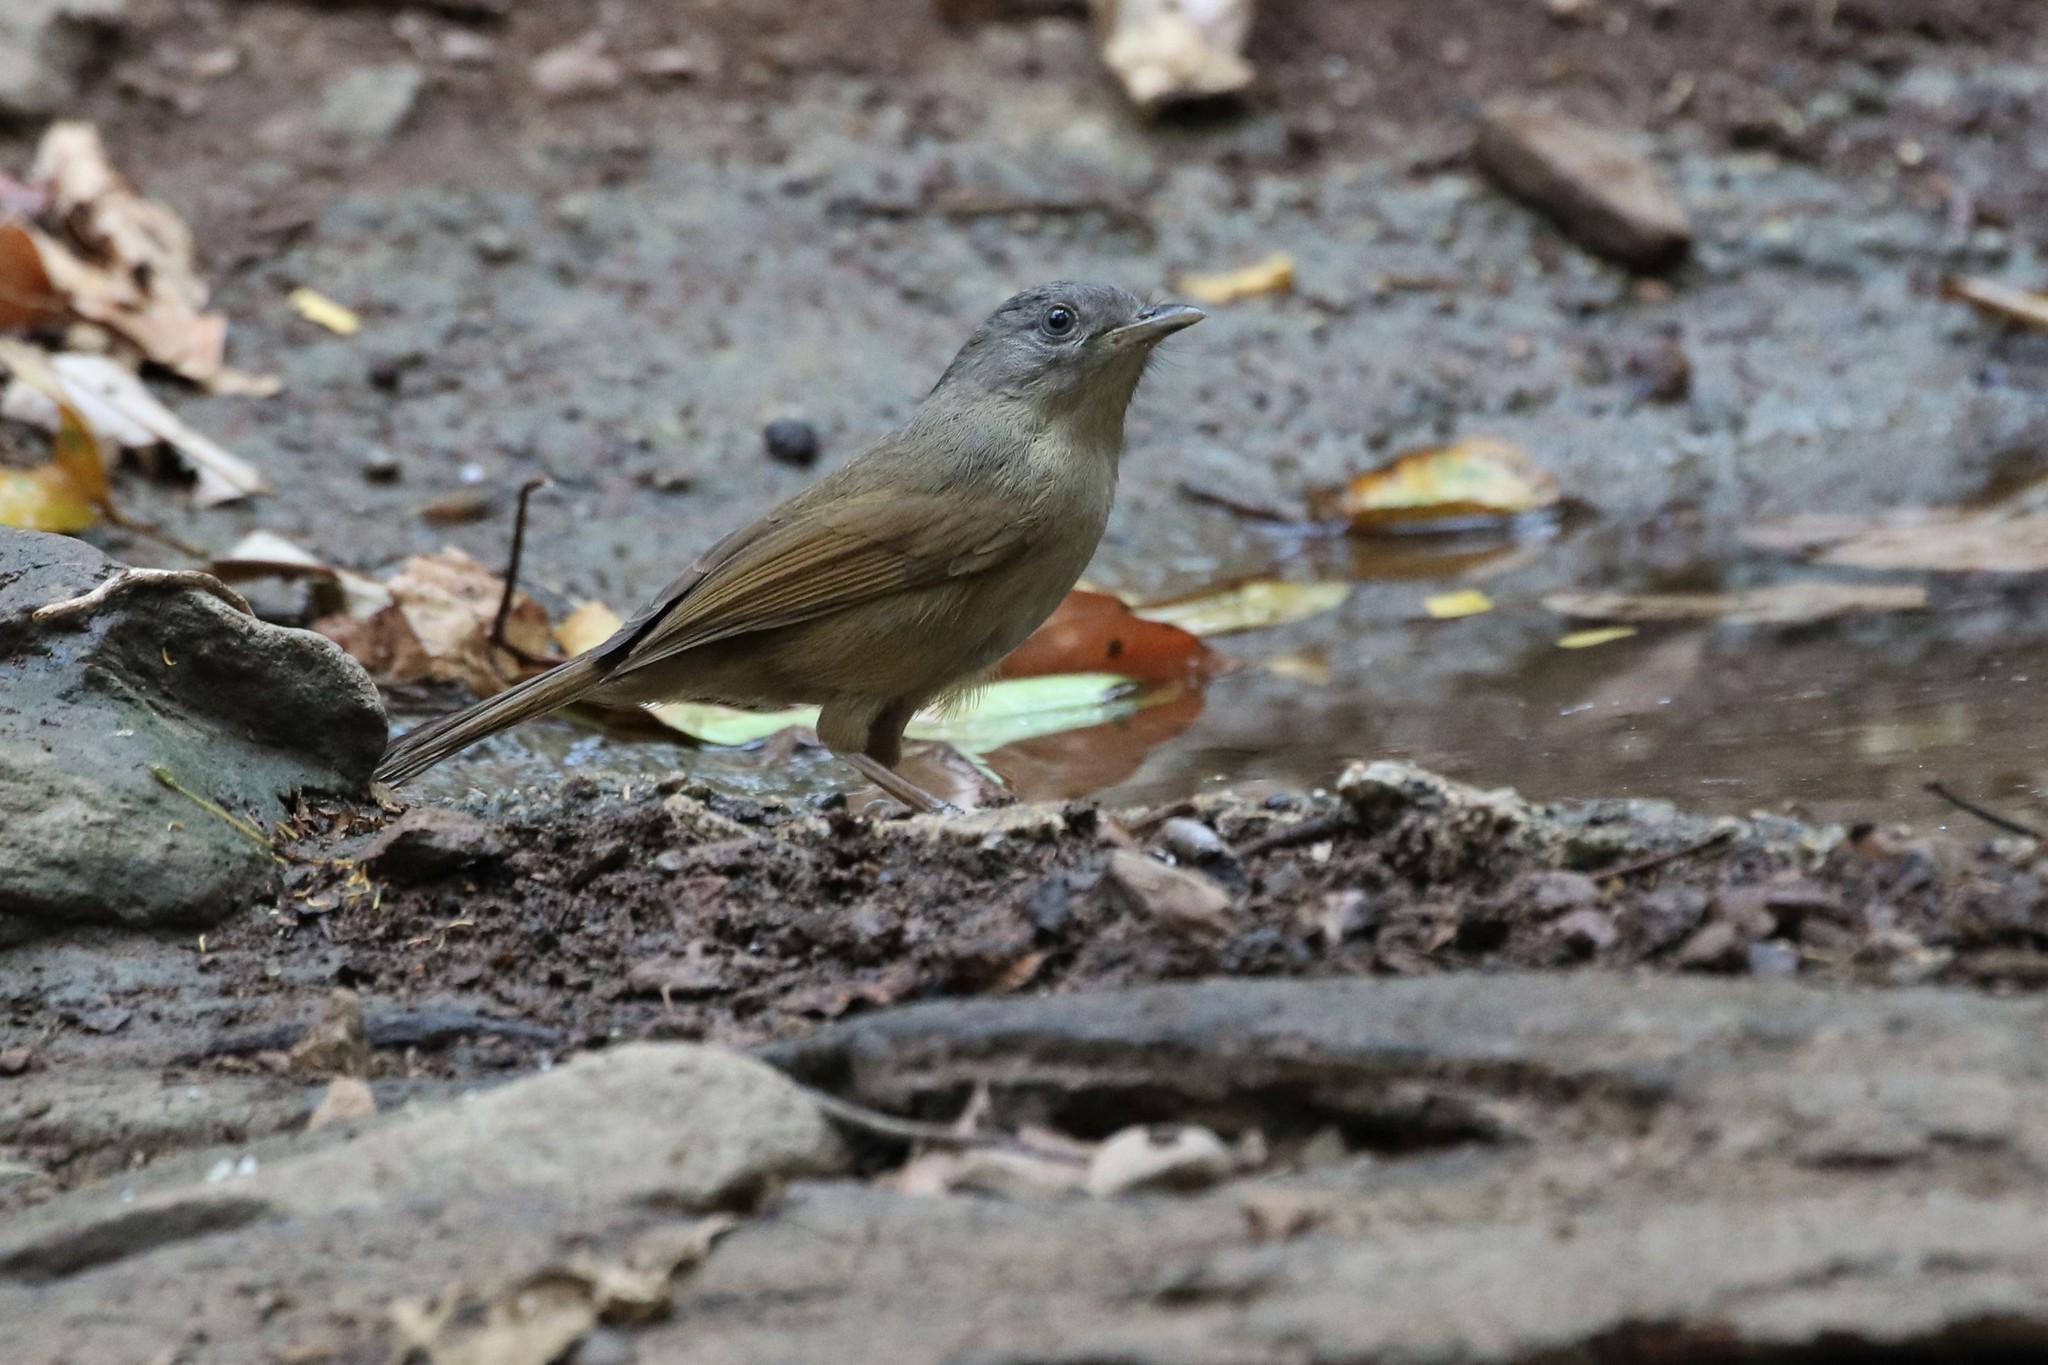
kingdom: Animalia
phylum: Chordata
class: Aves
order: Passeriformes
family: Pellorneidae
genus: Alcippe
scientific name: Alcippe poioicephala
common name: Brown-cheeked fulvetta
